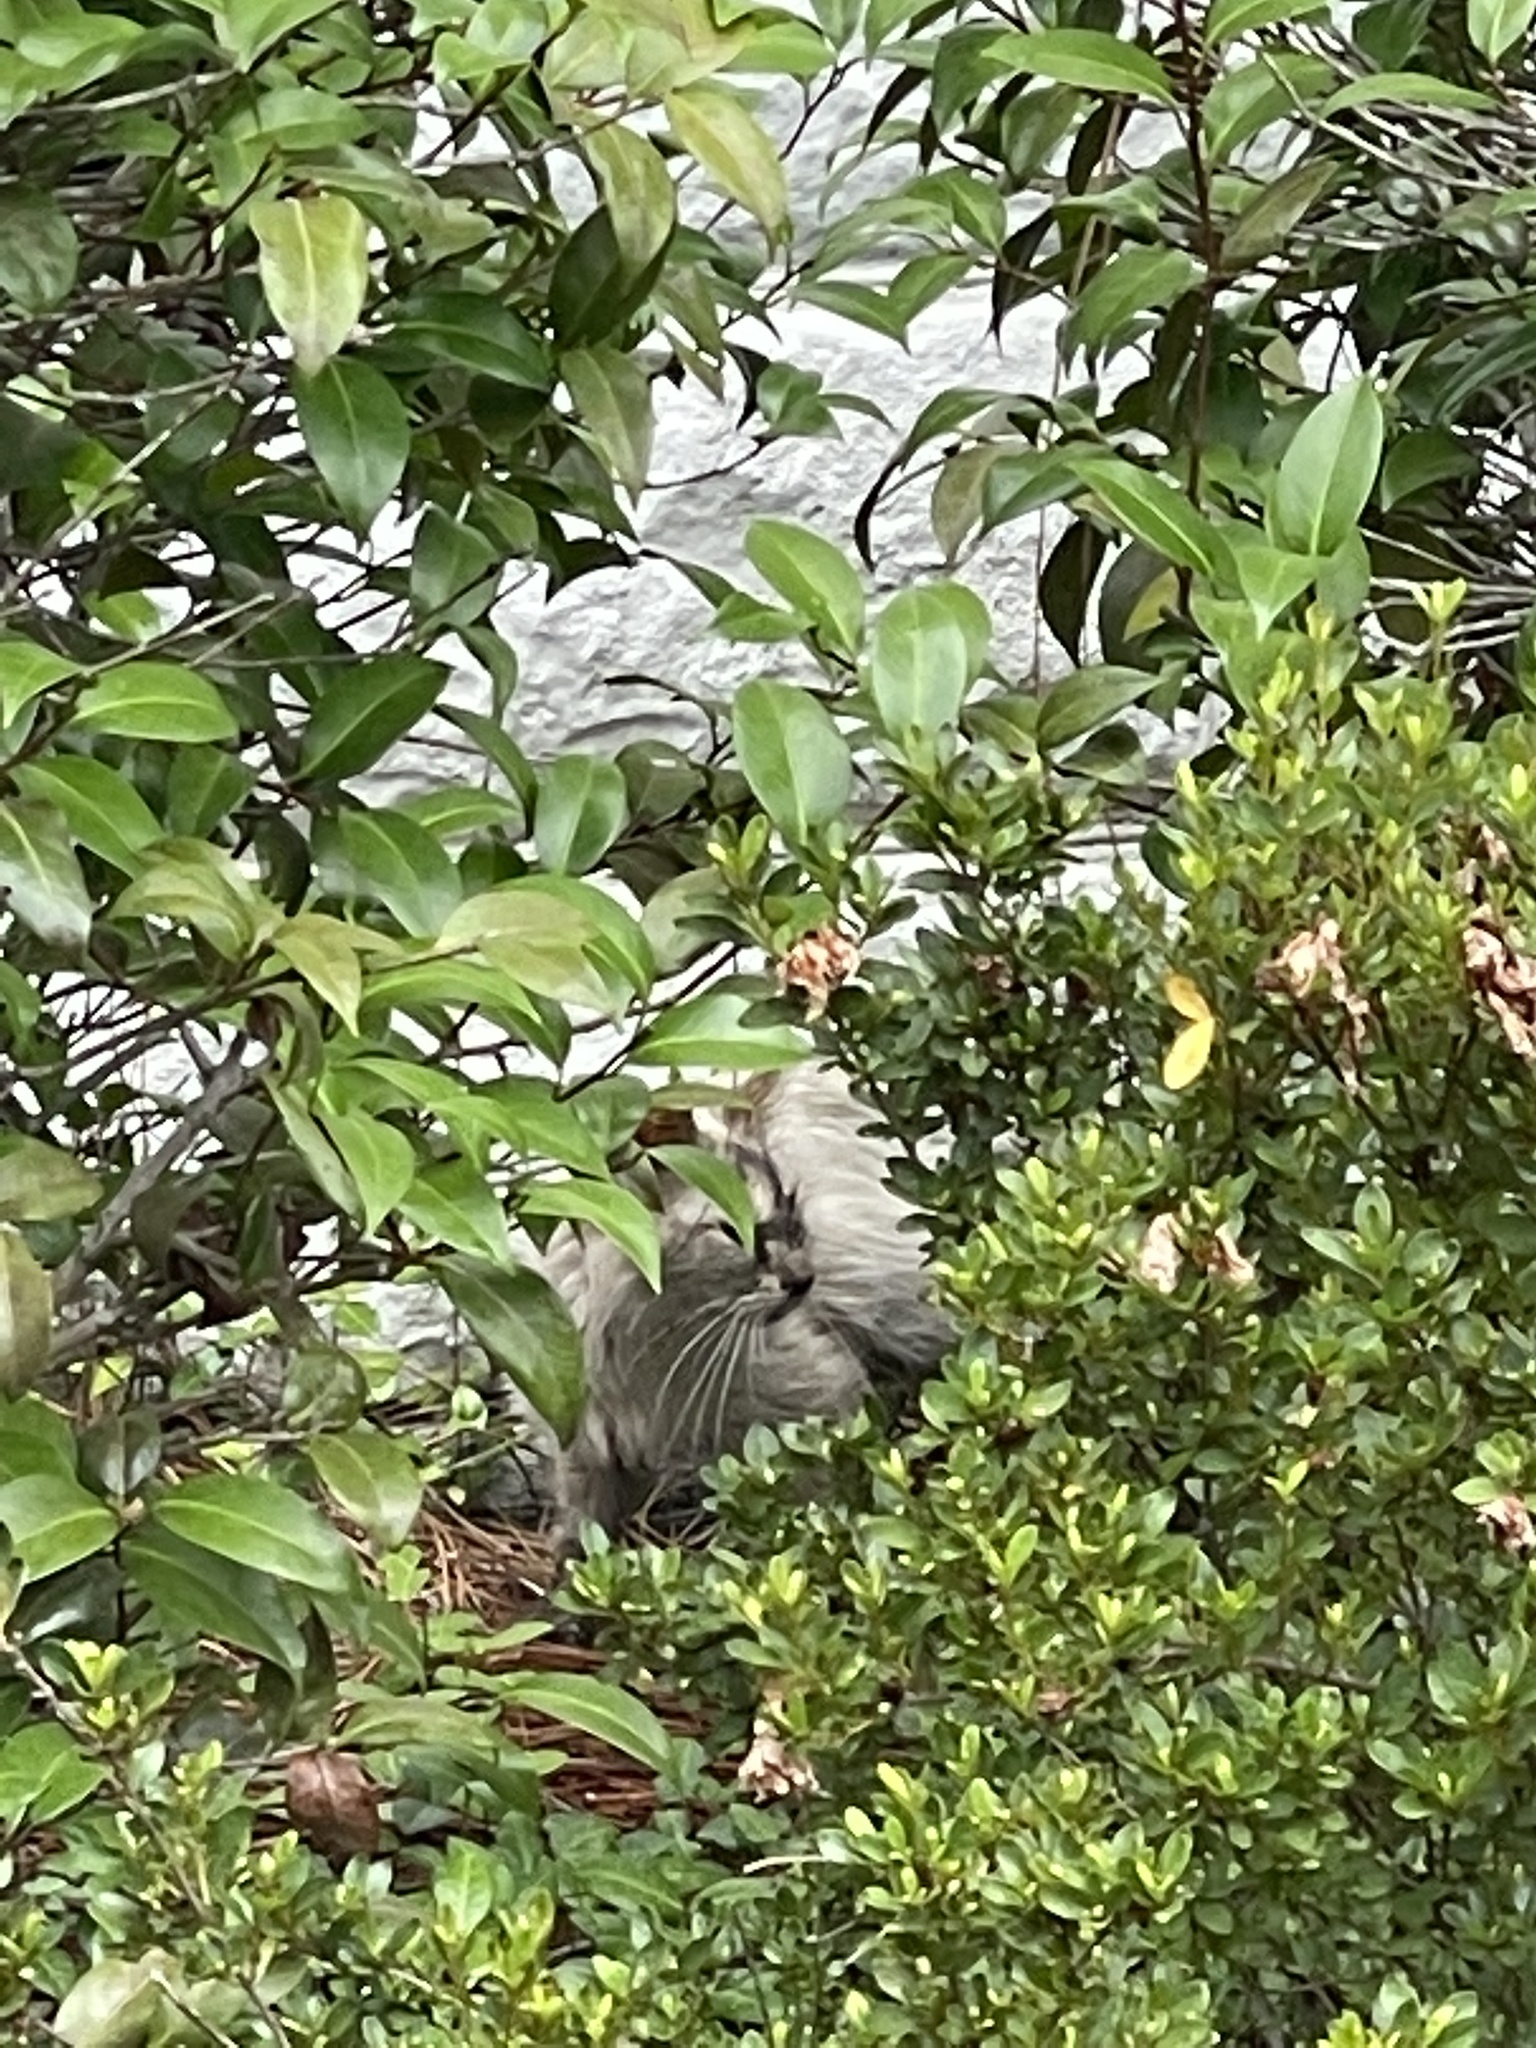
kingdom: Animalia
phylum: Chordata
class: Mammalia
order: Carnivora
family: Felidae
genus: Felis
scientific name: Felis catus
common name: Domestic cat
